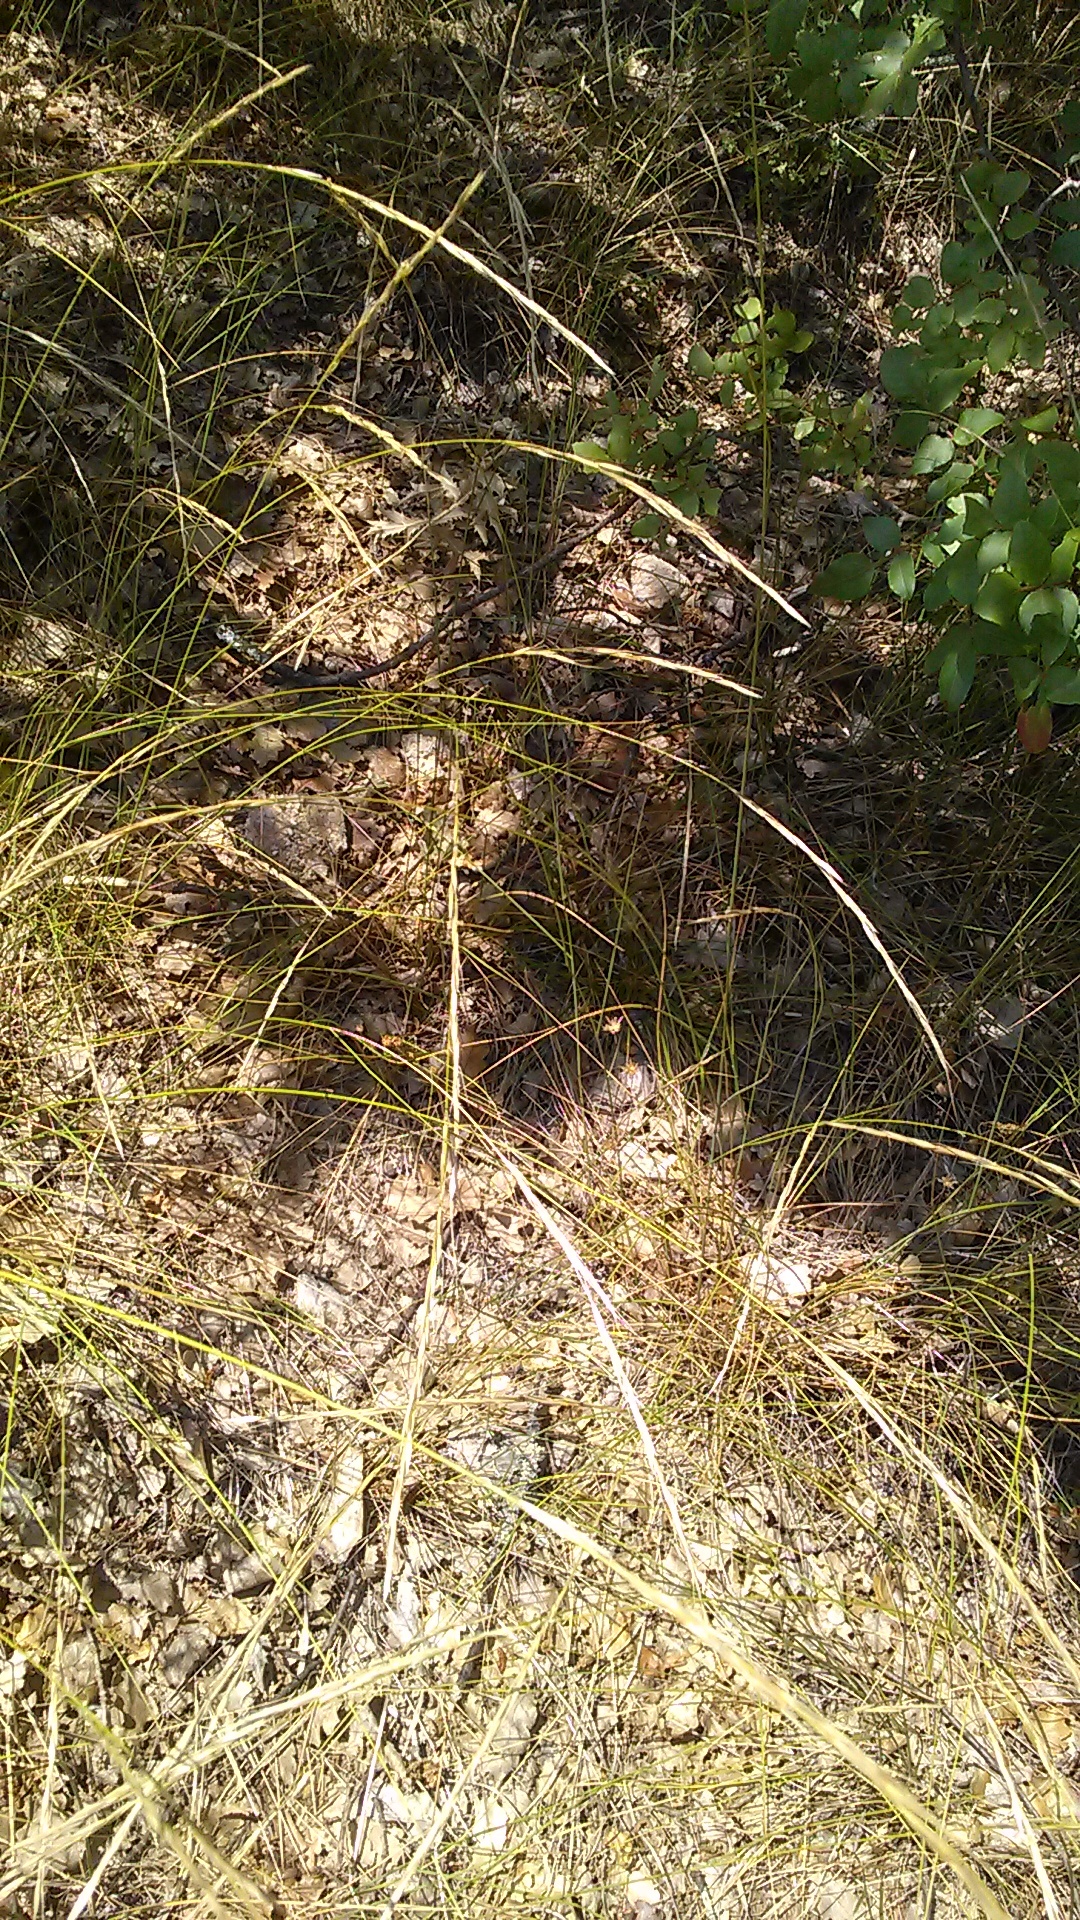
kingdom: Plantae
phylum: Tracheophyta
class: Liliopsida
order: Poales
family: Poaceae
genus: Achnatherum
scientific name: Achnatherum bromoides
